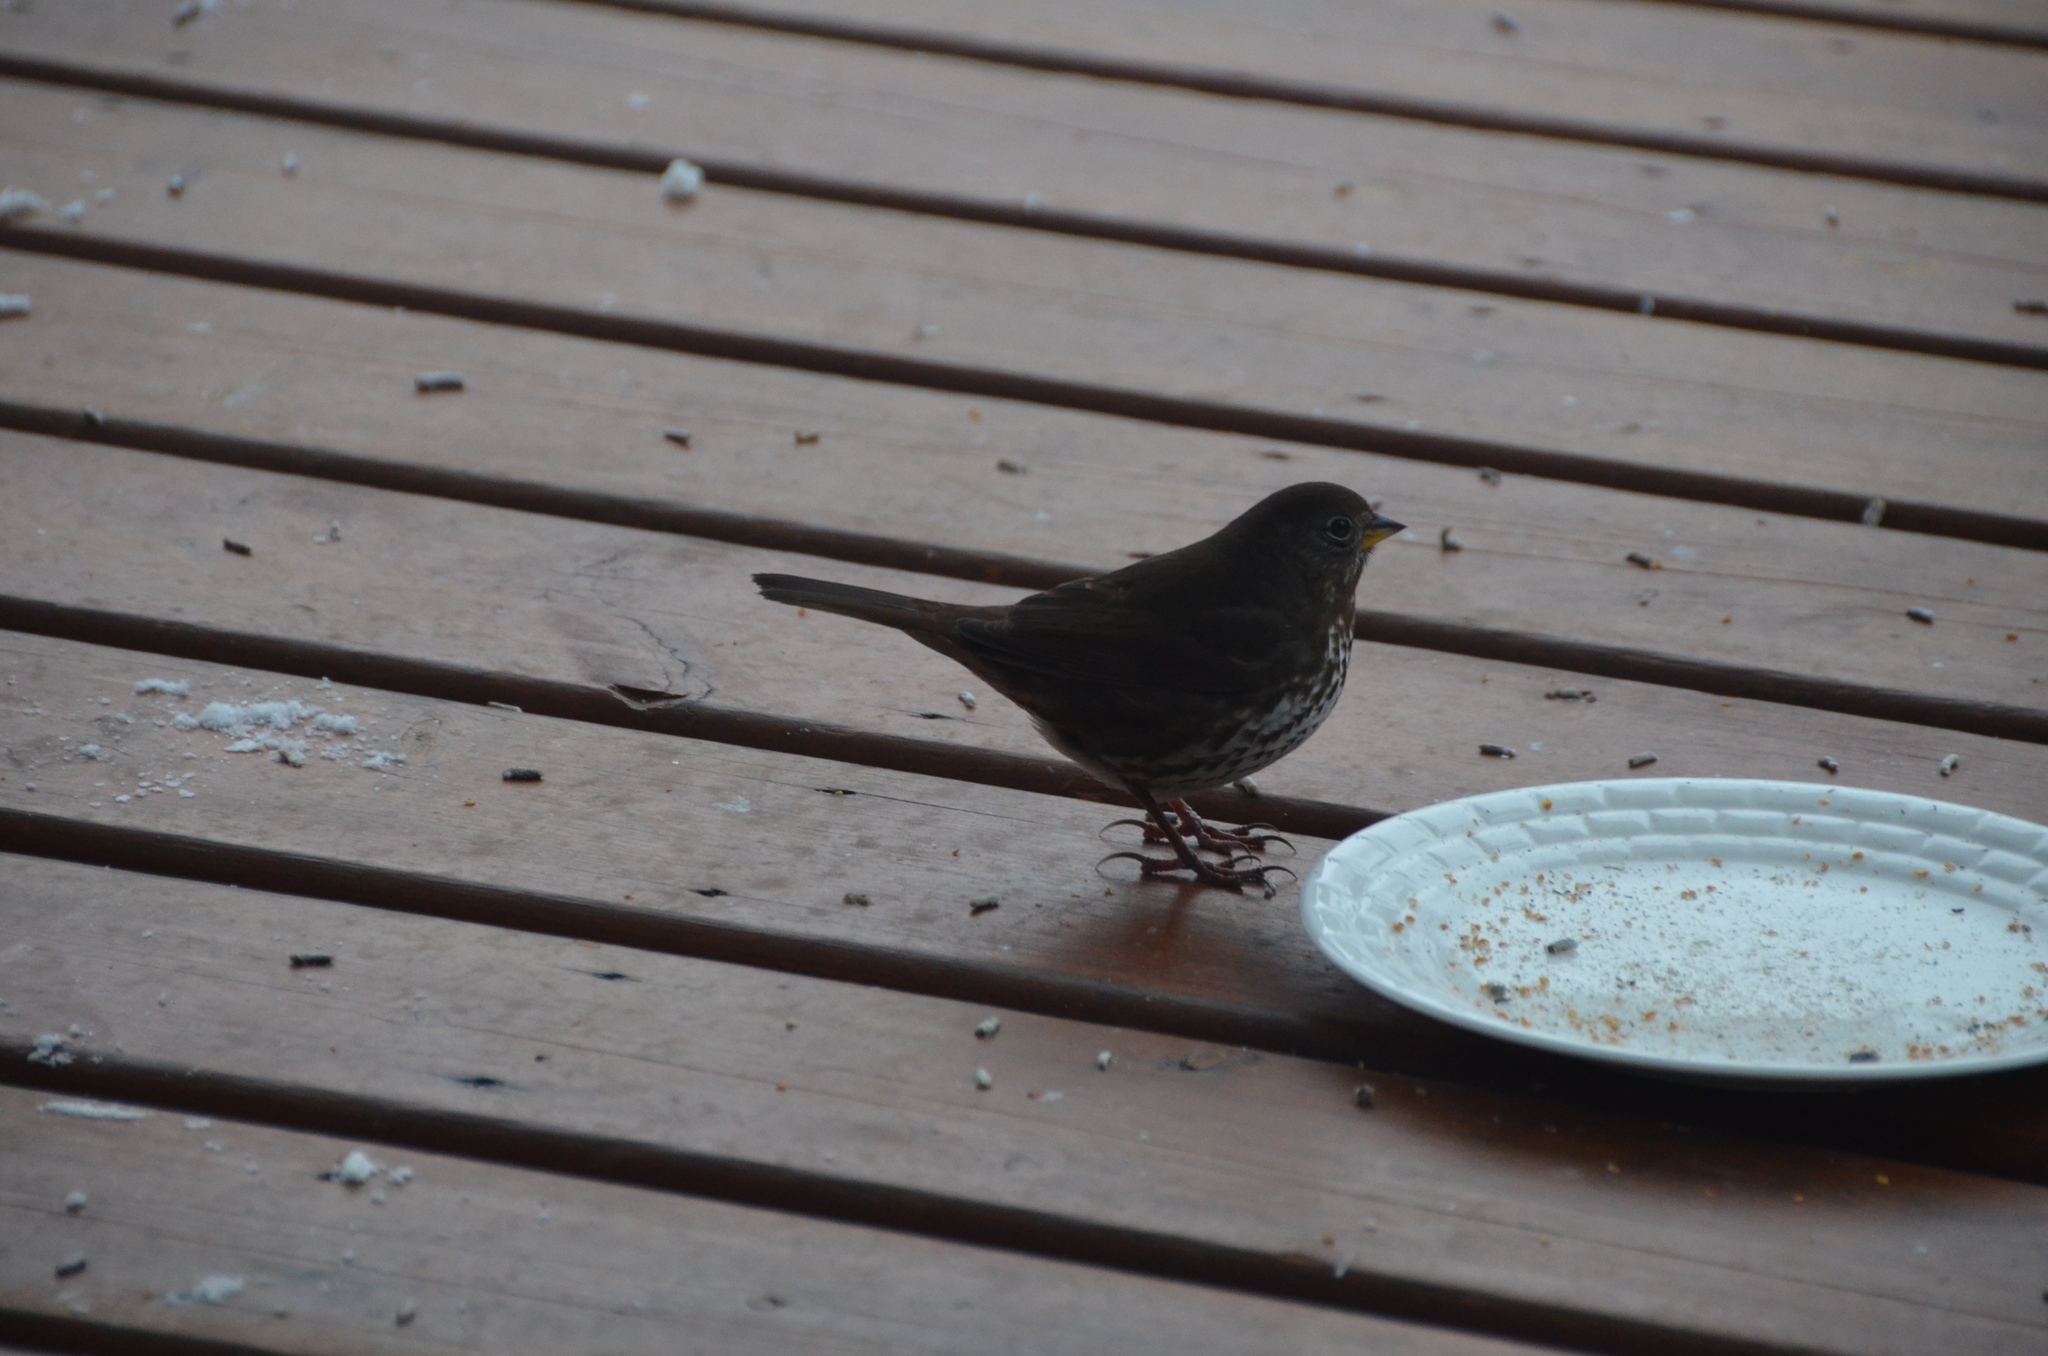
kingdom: Animalia
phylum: Chordata
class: Aves
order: Passeriformes
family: Passerellidae
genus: Passerella
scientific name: Passerella iliaca
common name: Fox sparrow
